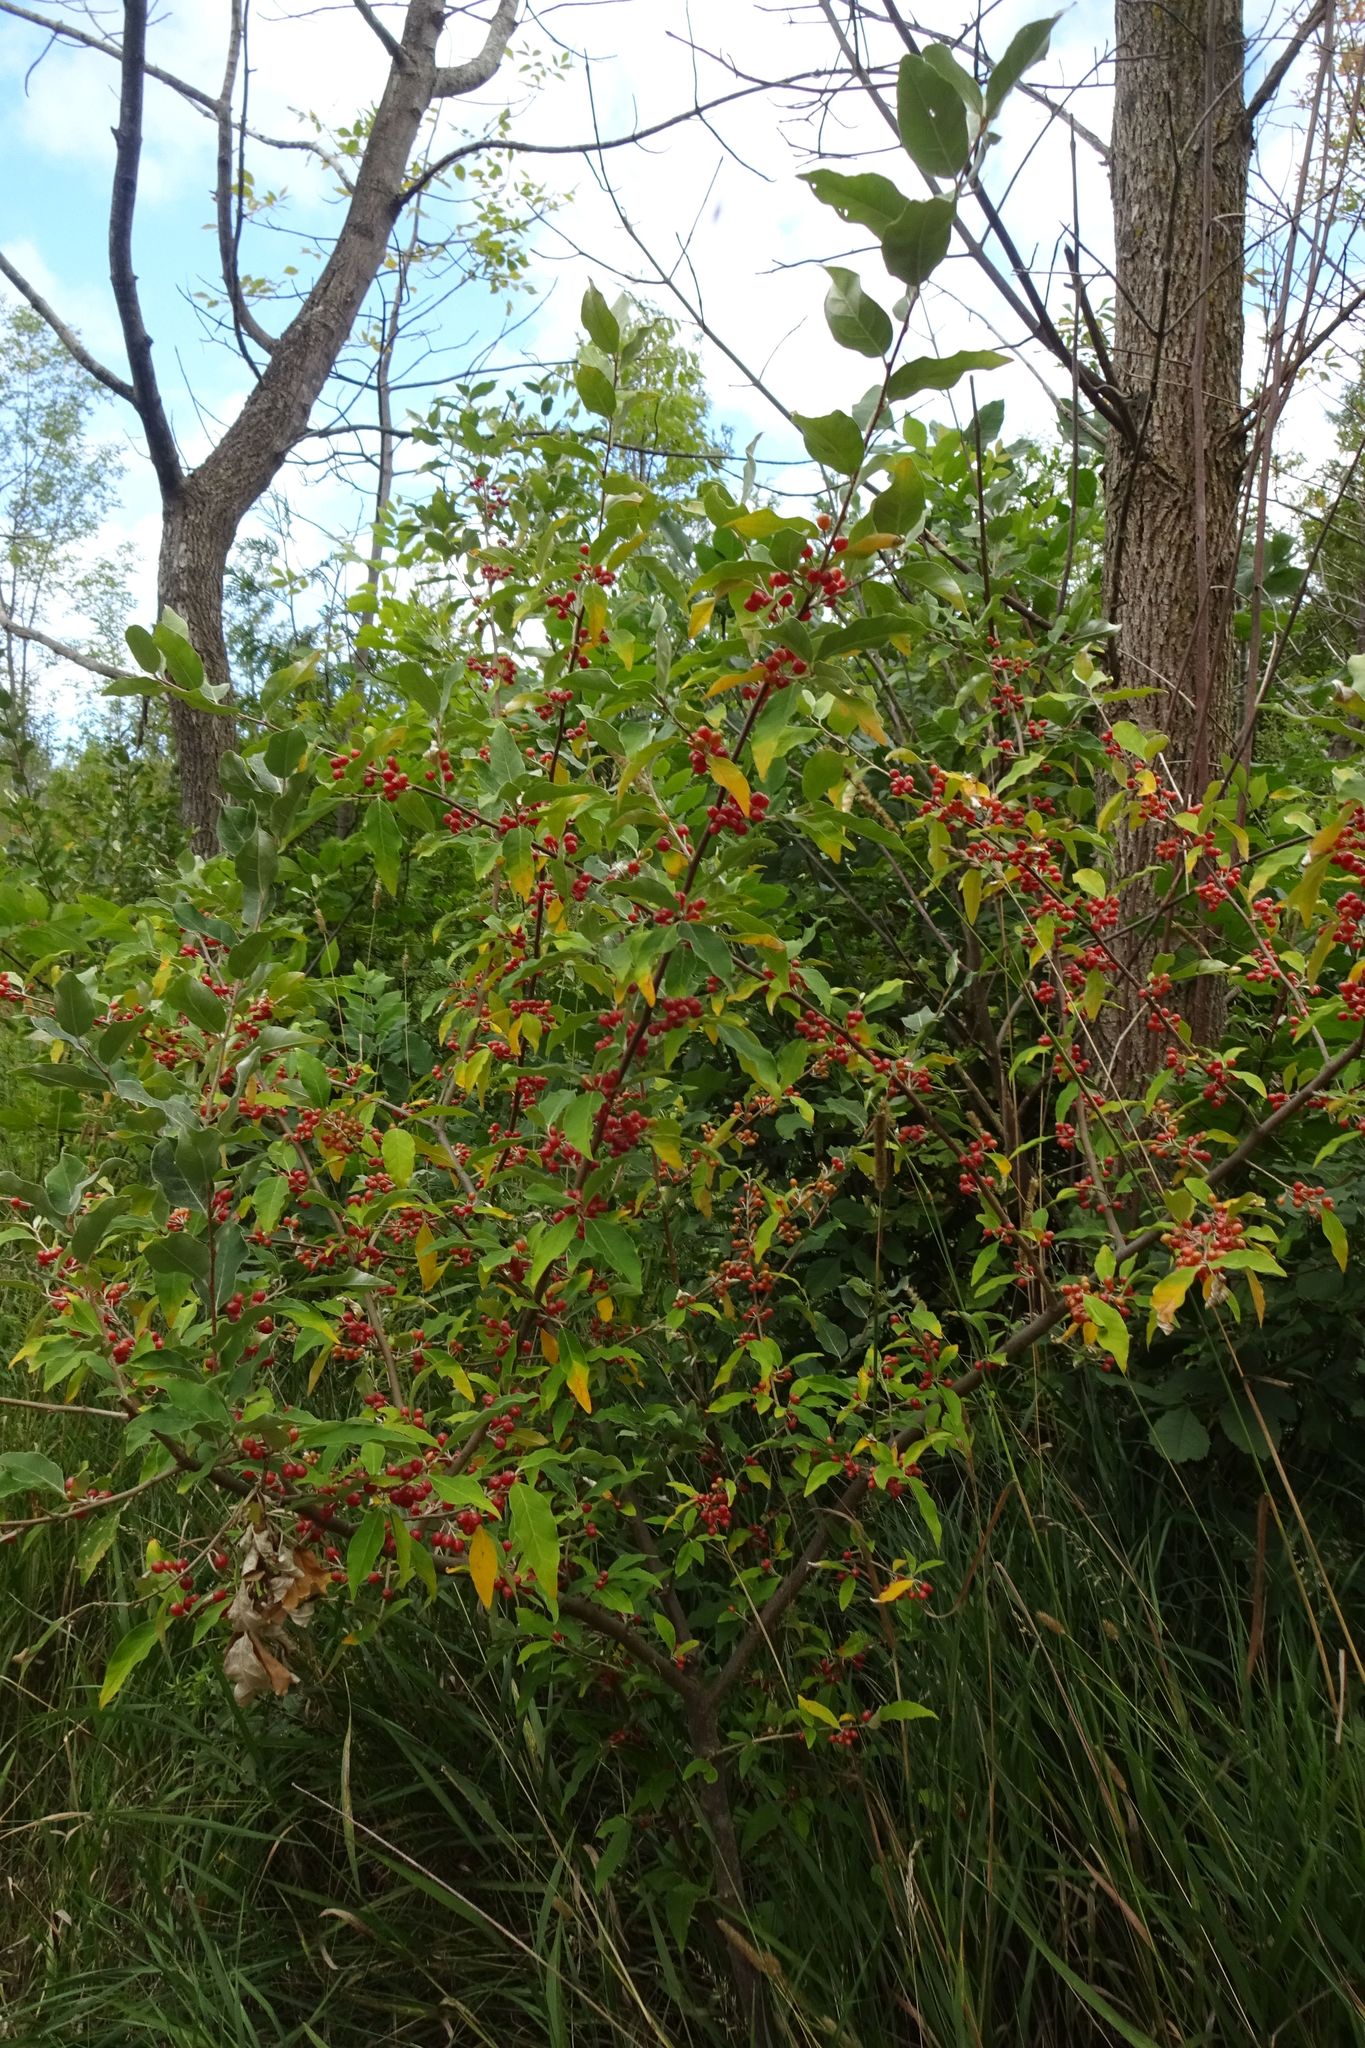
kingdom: Plantae
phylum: Tracheophyta
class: Magnoliopsida
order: Rosales
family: Elaeagnaceae
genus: Elaeagnus
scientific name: Elaeagnus umbellata
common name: Autumn olive
